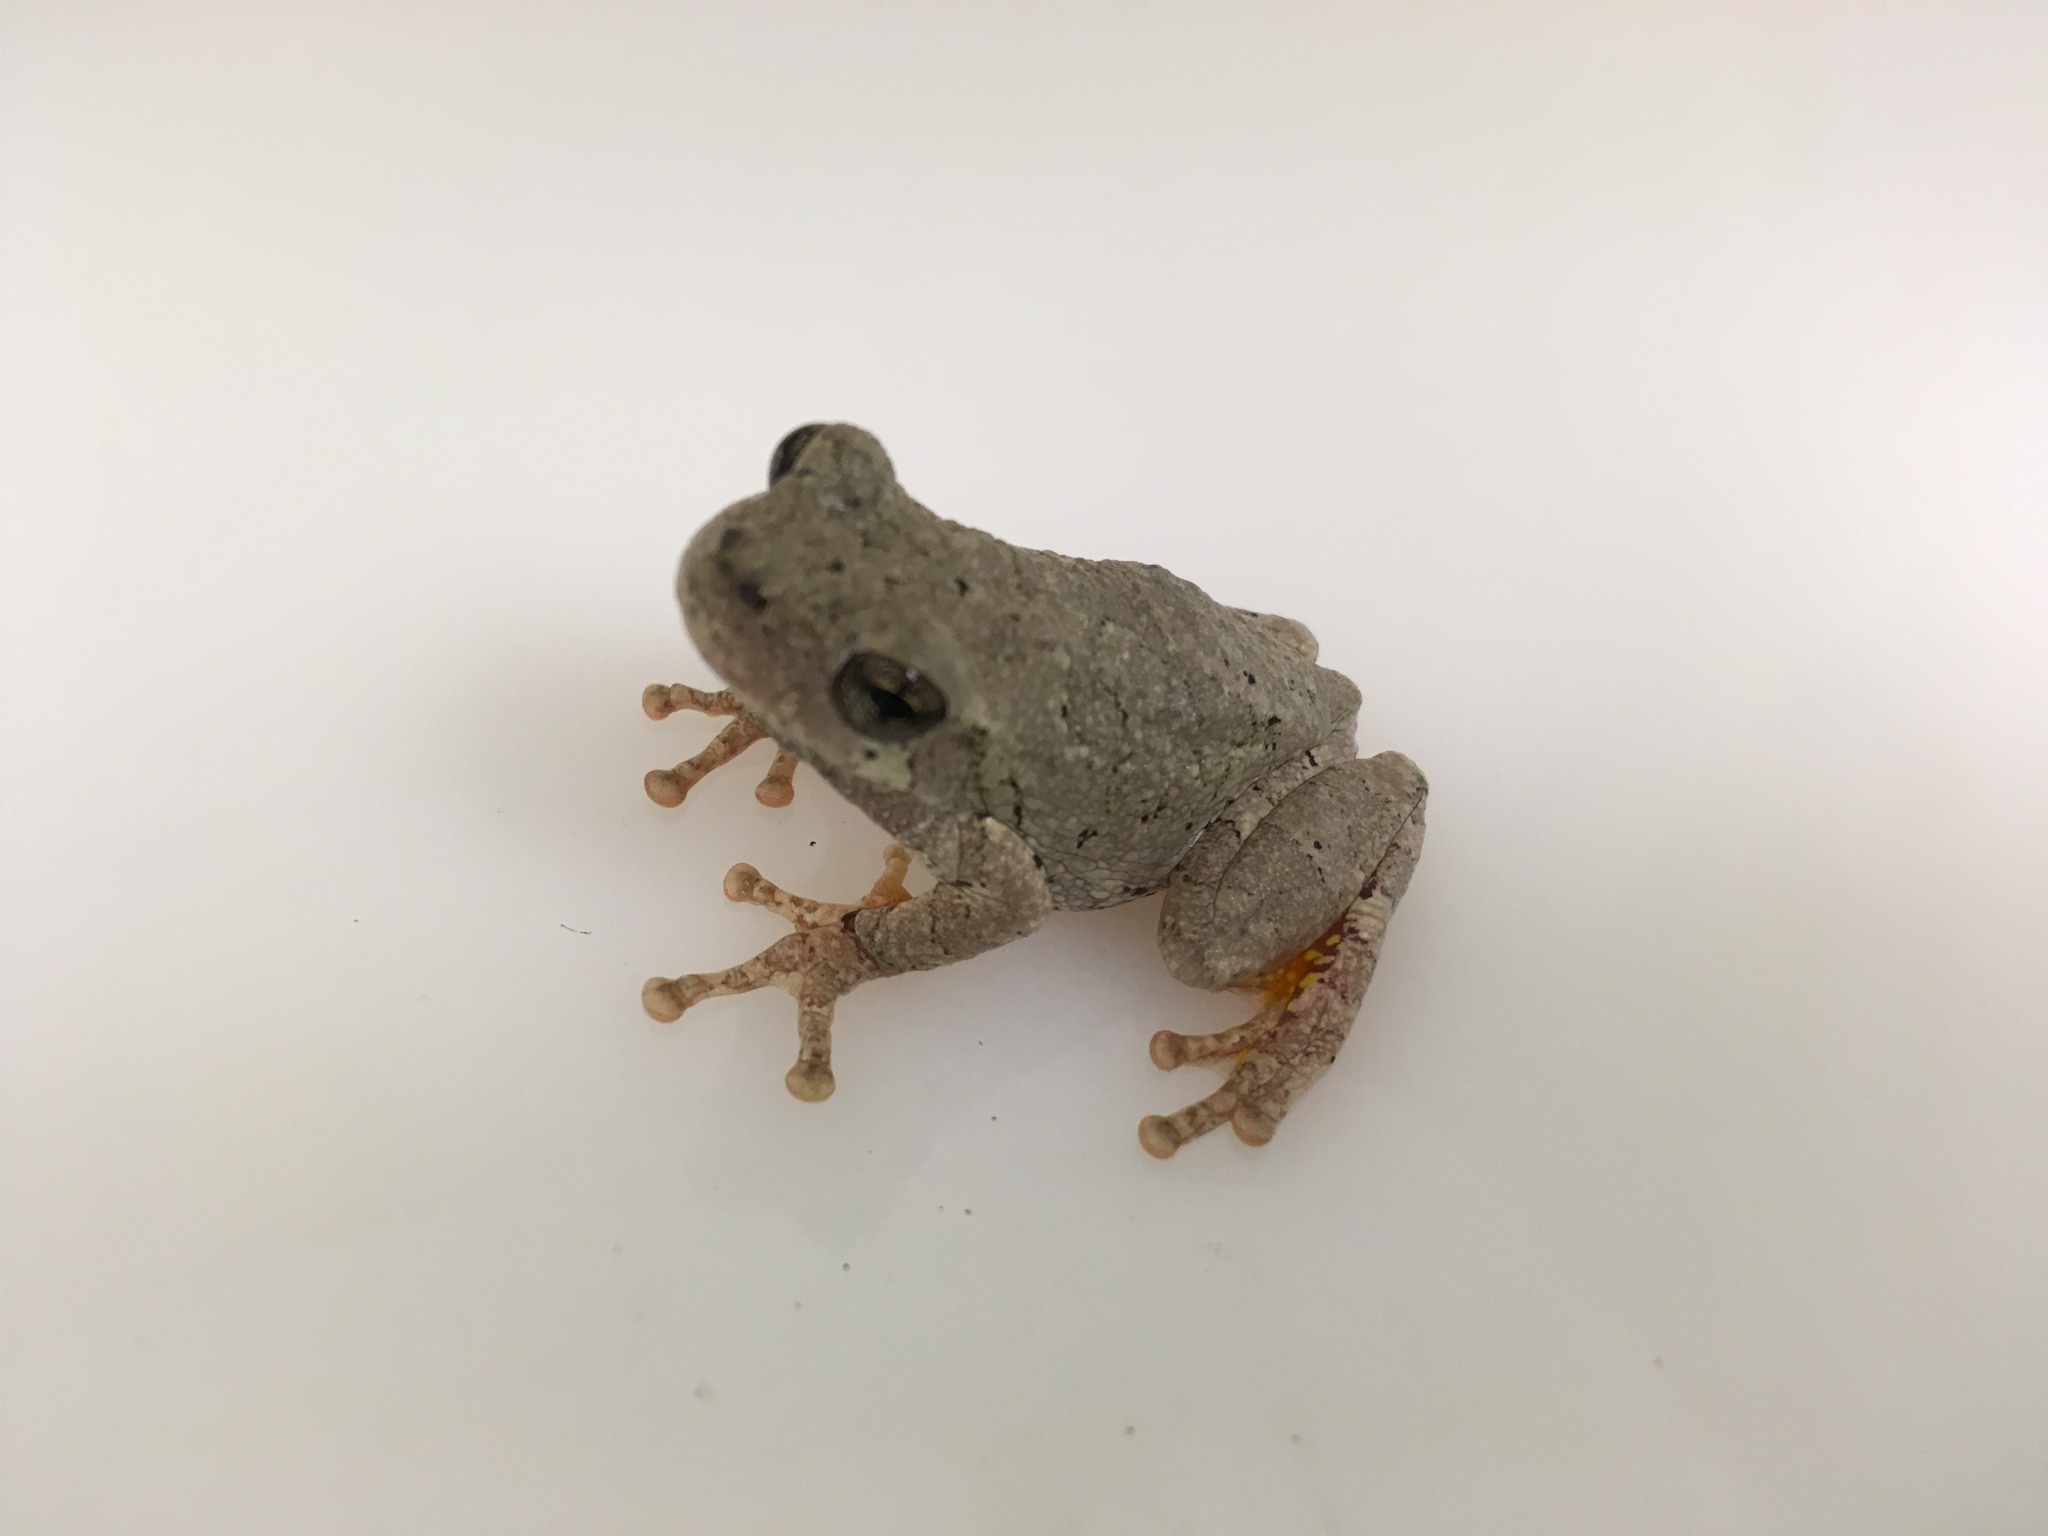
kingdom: Animalia
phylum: Chordata
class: Amphibia
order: Anura
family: Hylidae
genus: Hyla
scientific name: Hyla
